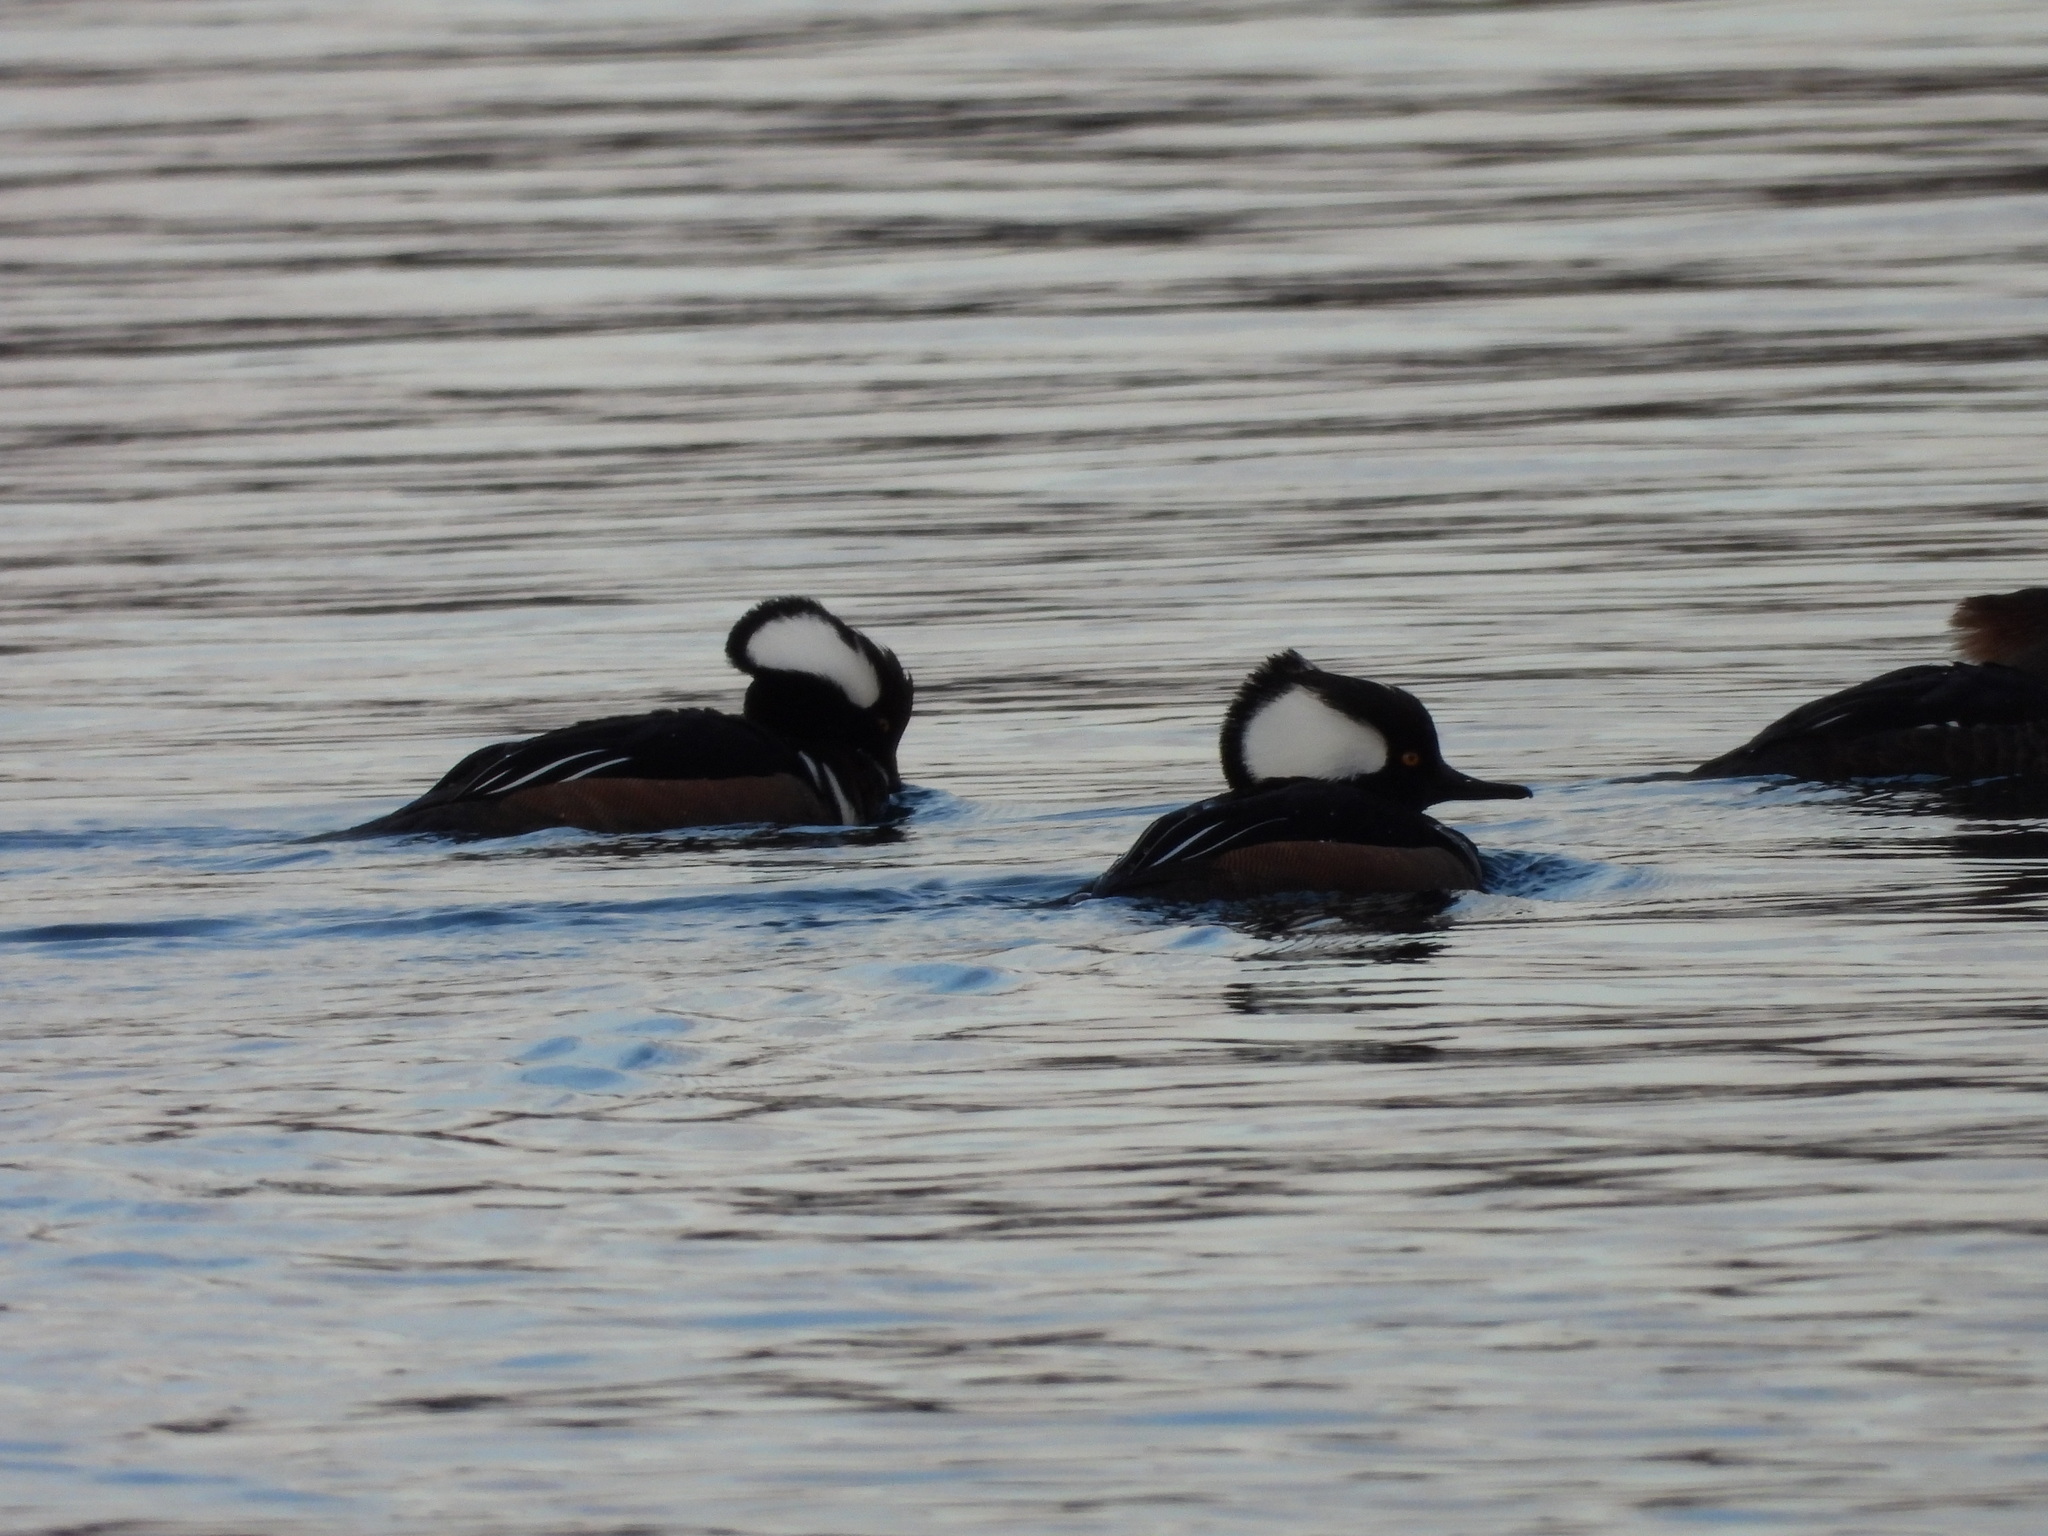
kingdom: Animalia
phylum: Chordata
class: Aves
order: Anseriformes
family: Anatidae
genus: Lophodytes
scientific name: Lophodytes cucullatus
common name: Hooded merganser
